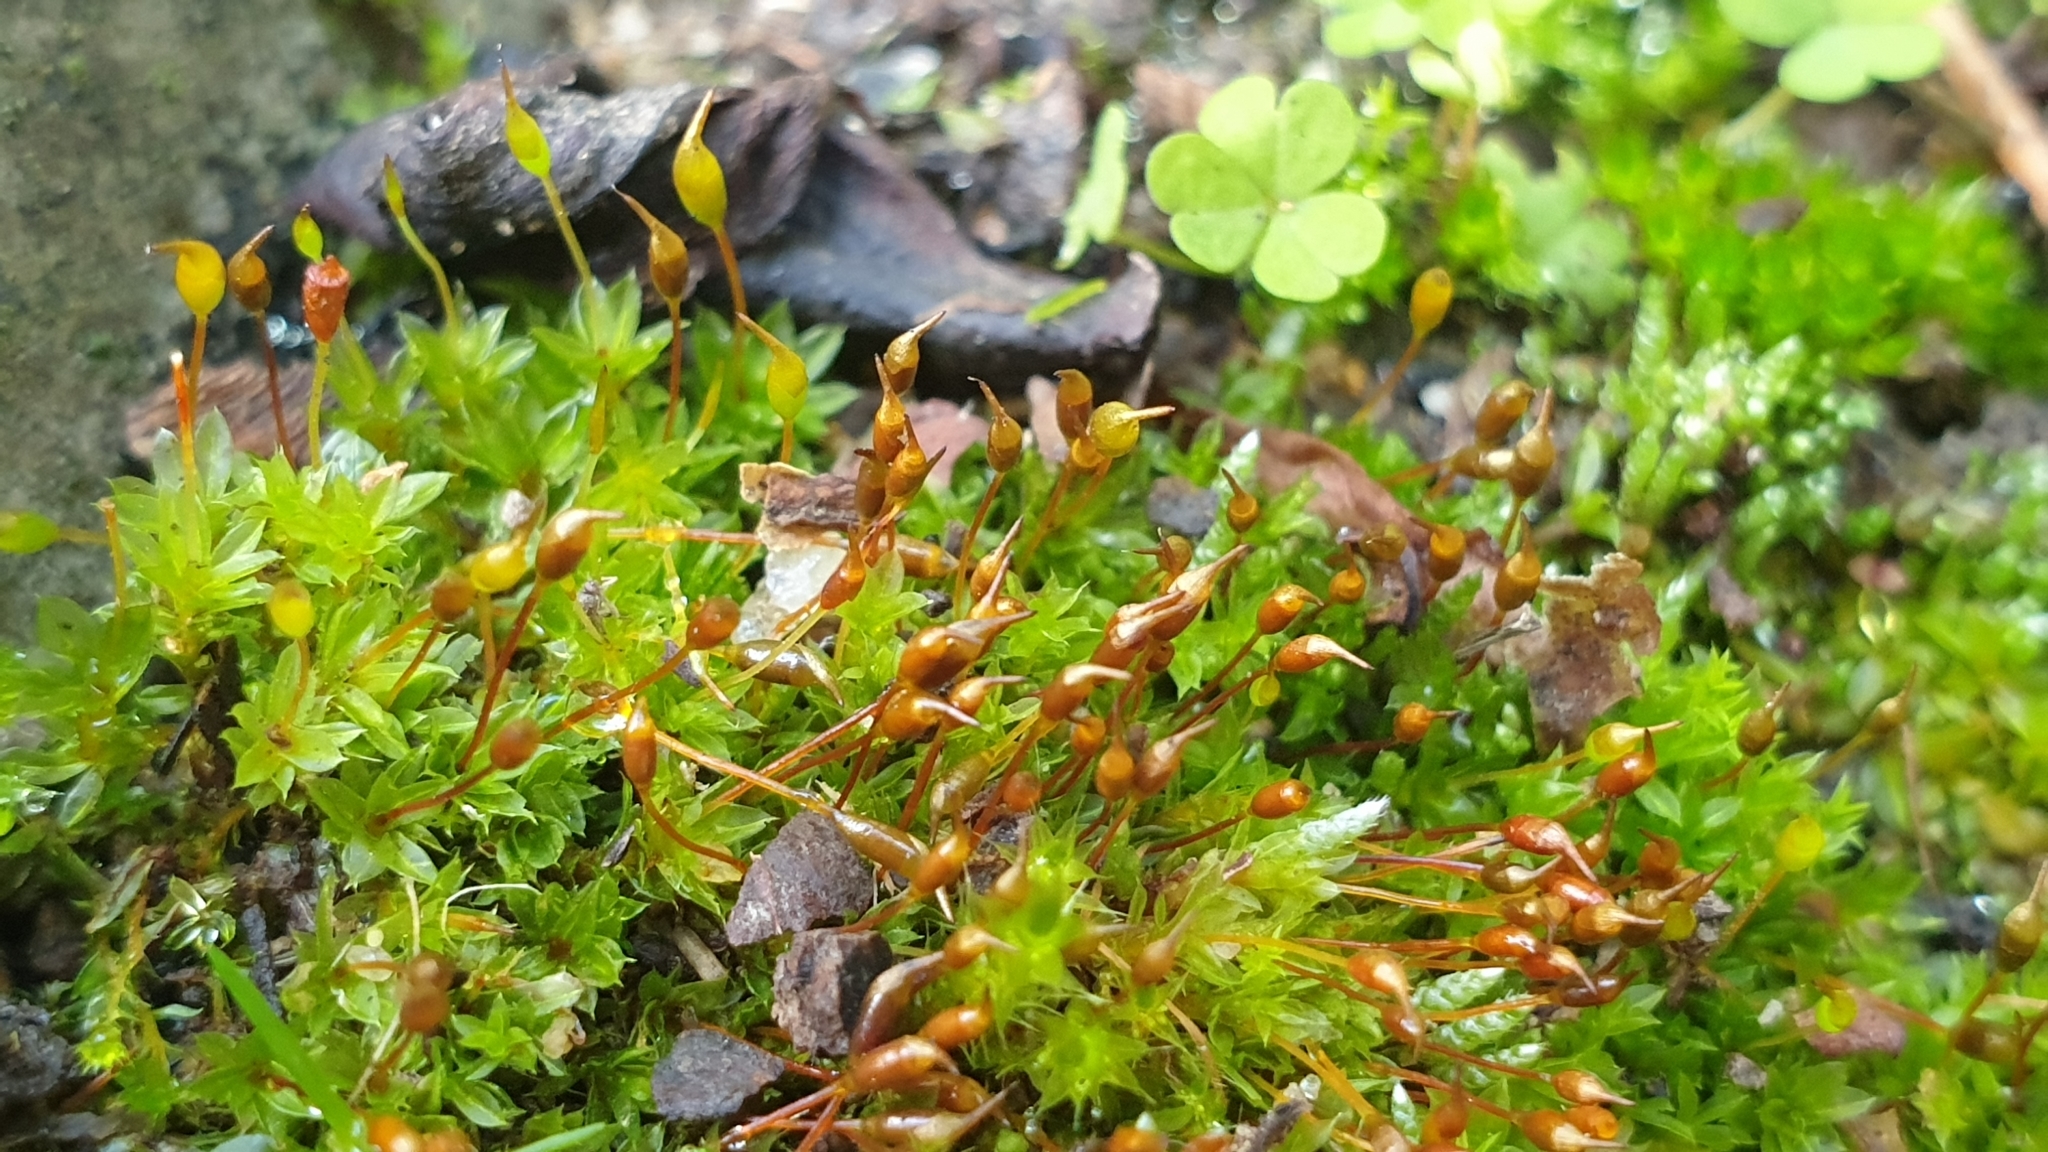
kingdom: Plantae
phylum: Bryophyta
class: Bryopsida
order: Pottiales
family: Pottiaceae
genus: Tortula
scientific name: Tortula truncata
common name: Truncated screw moss
